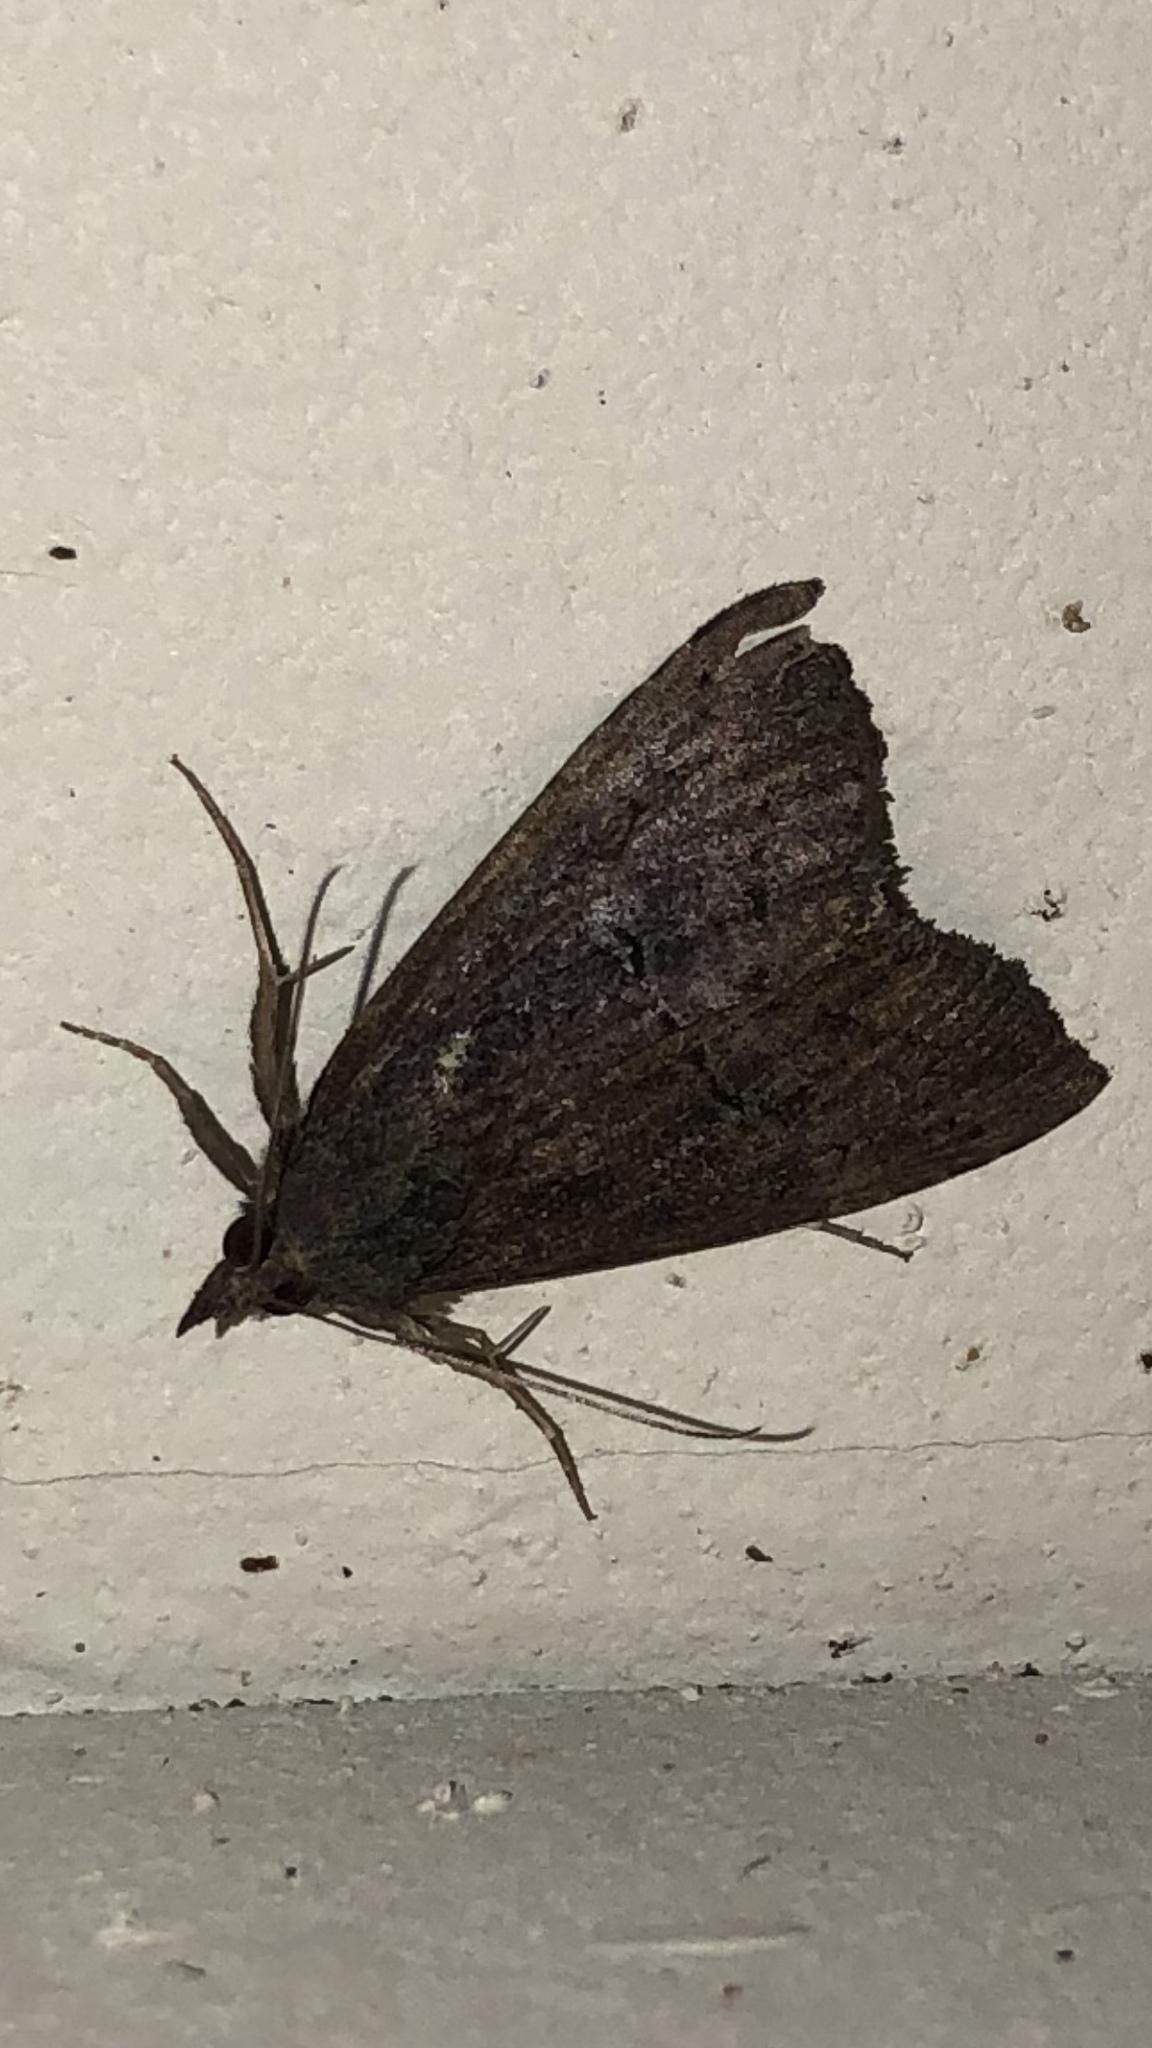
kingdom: Animalia
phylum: Arthropoda
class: Insecta
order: Lepidoptera
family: Erebidae
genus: Hypena
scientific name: Hypena scabra
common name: Green cloverworm
